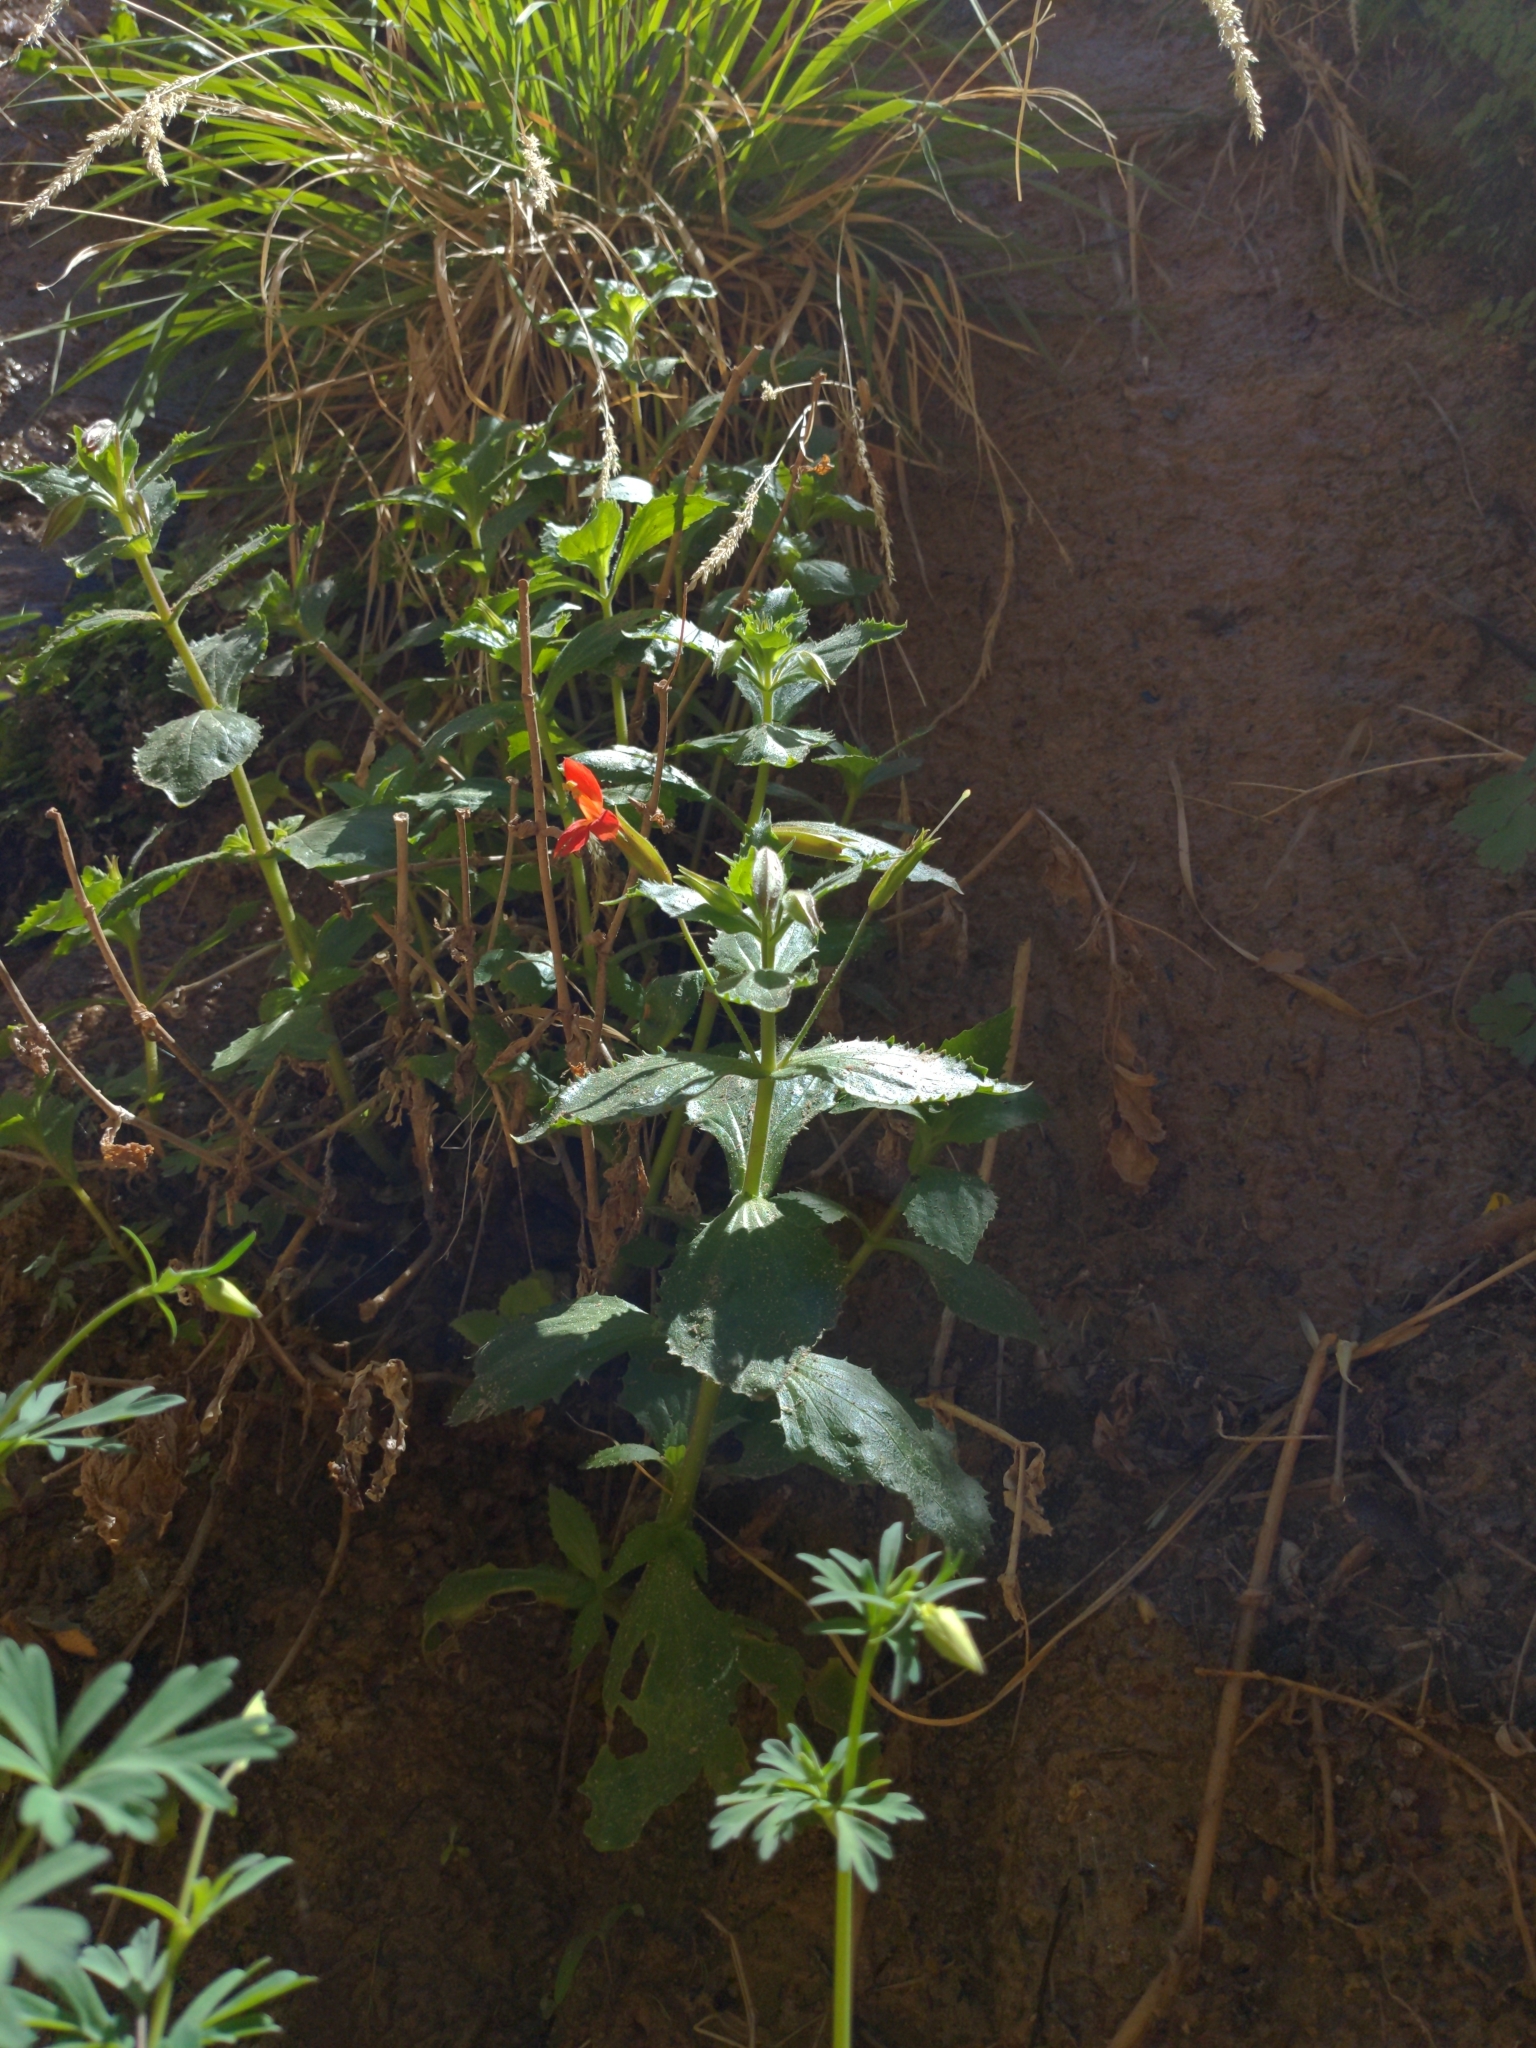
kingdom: Plantae
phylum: Tracheophyta
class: Magnoliopsida
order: Lamiales
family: Phrymaceae
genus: Erythranthe
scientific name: Erythranthe verbenacea
